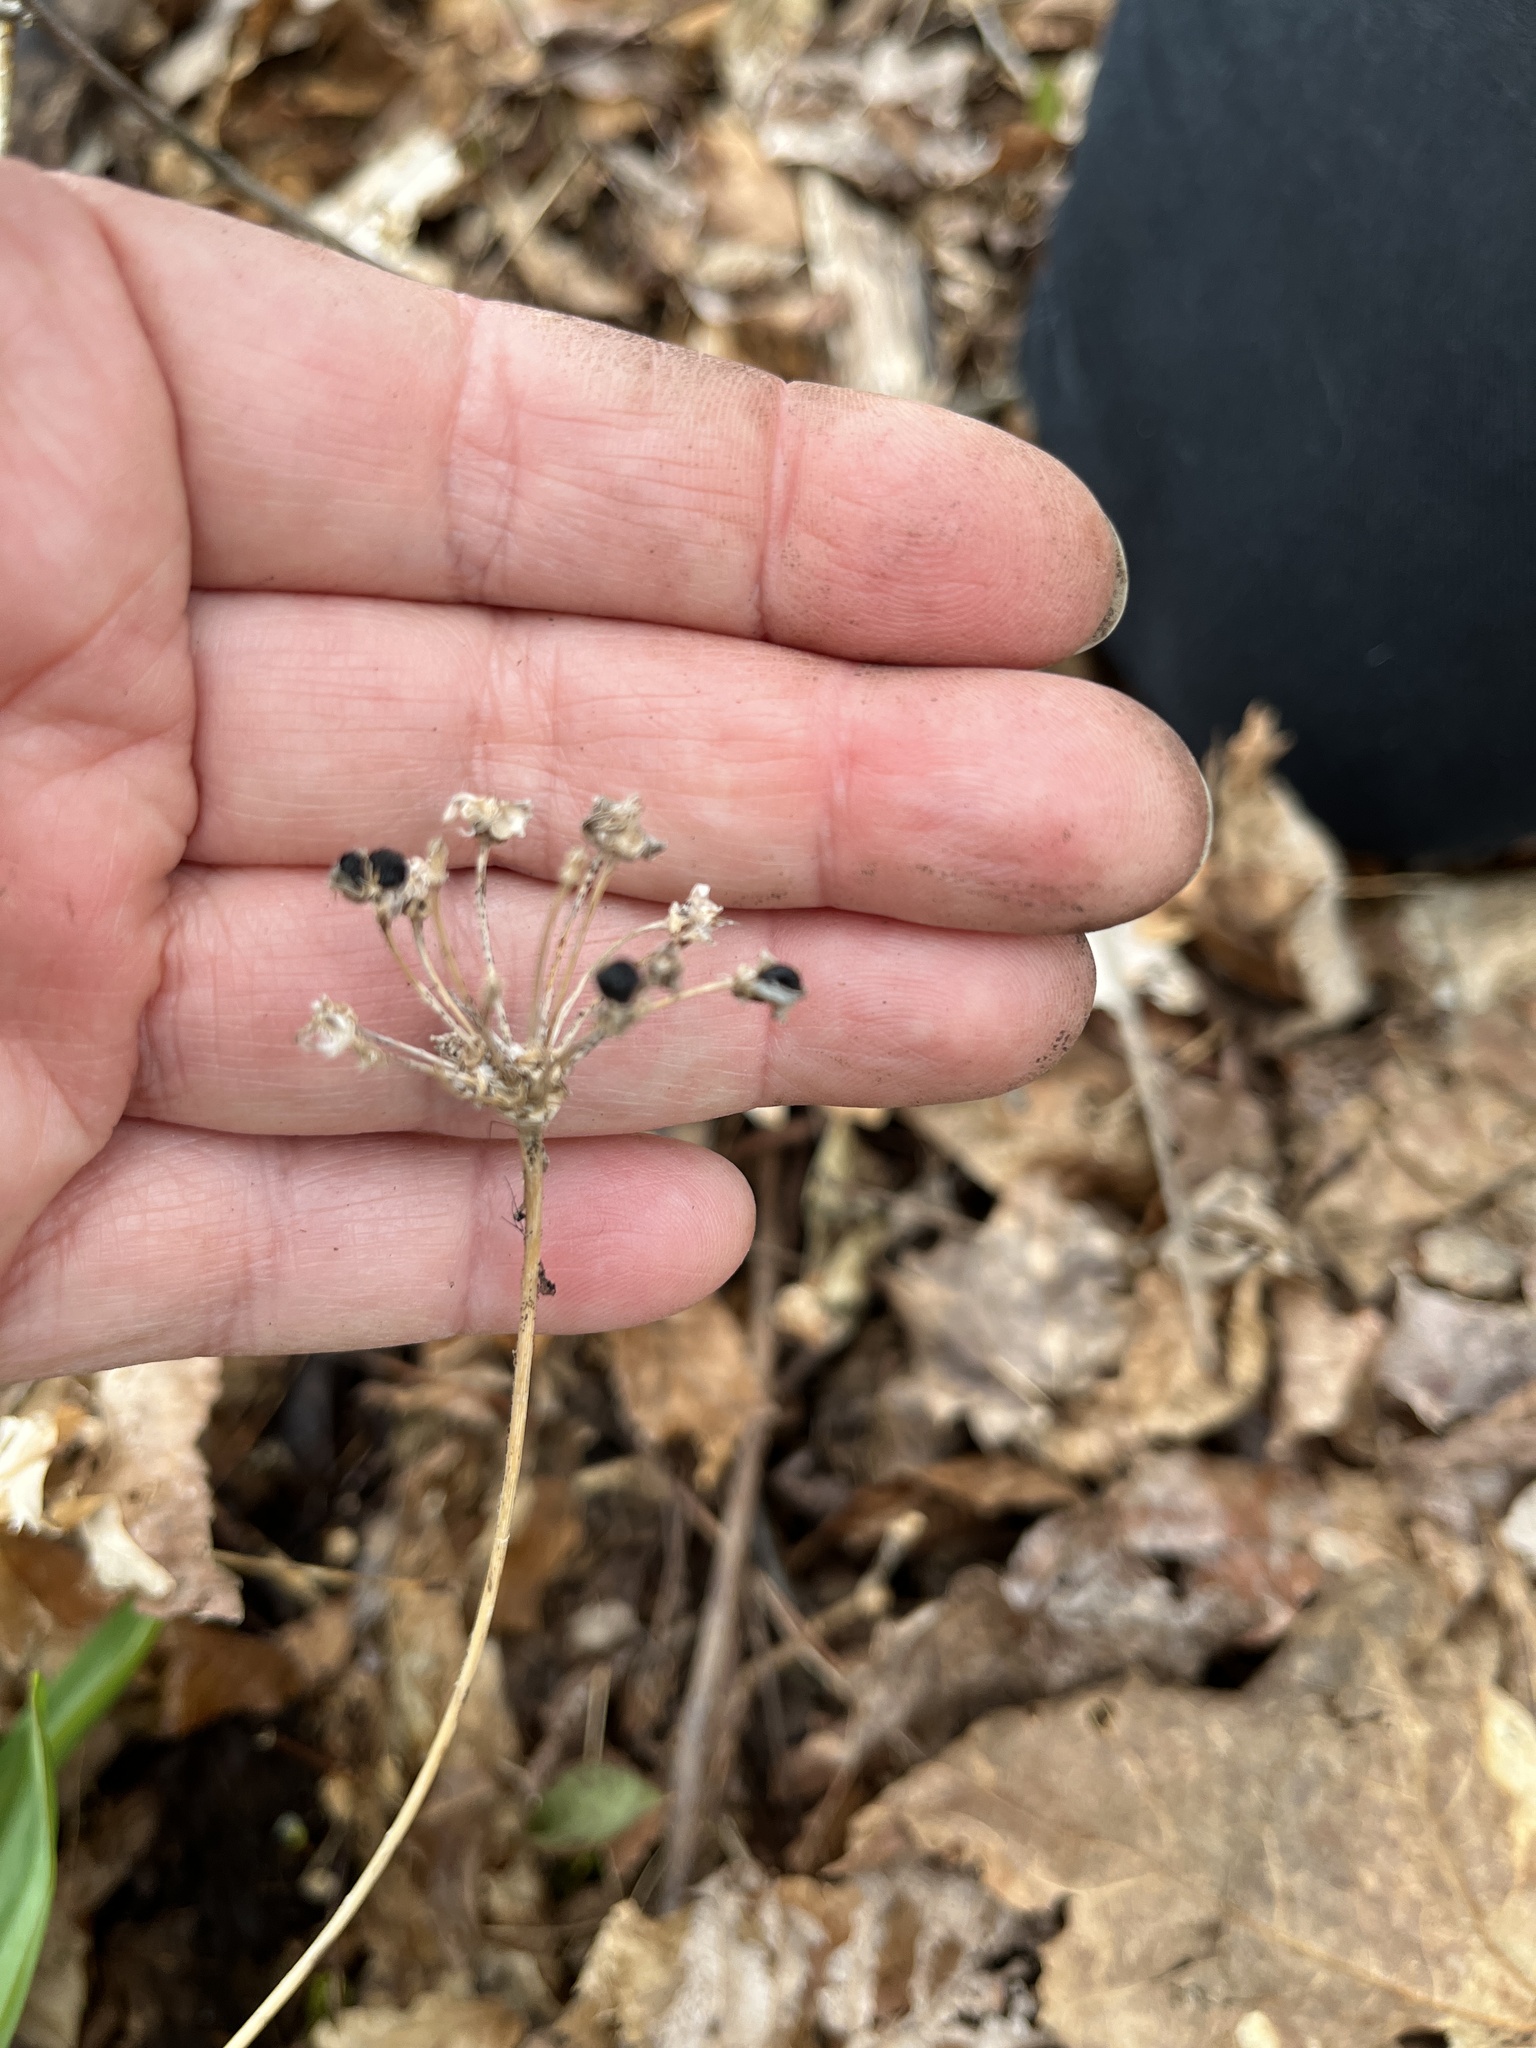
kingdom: Plantae
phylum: Tracheophyta
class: Liliopsida
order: Asparagales
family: Amaryllidaceae
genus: Allium
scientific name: Allium tricoccum
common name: Ramp
